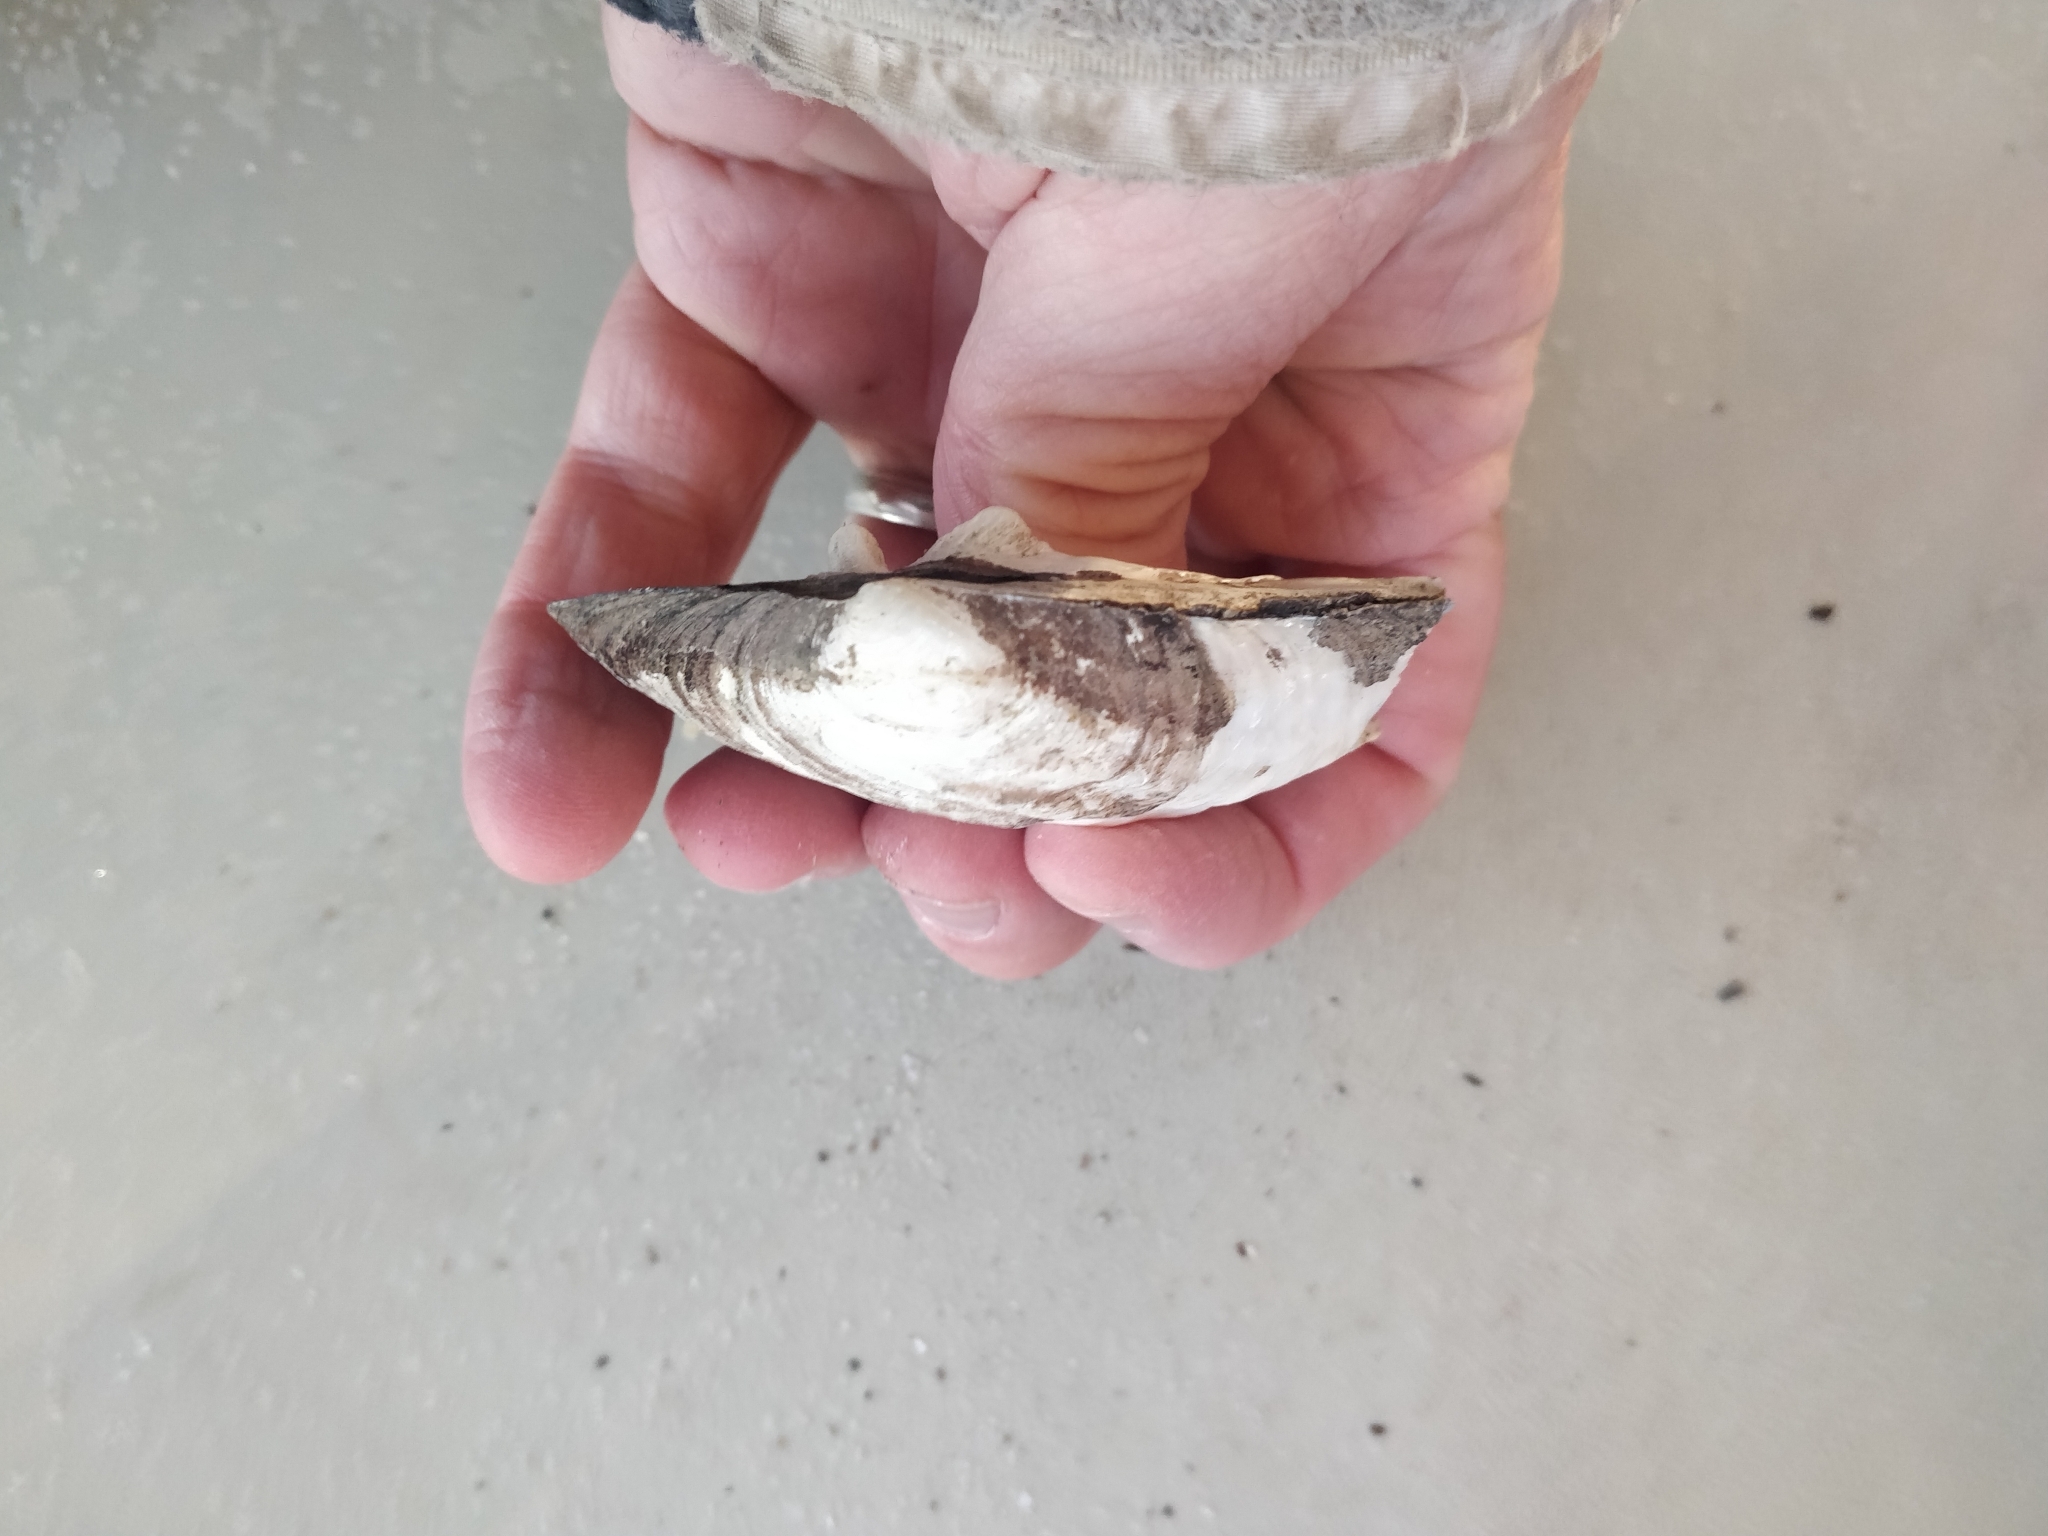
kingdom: Animalia
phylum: Mollusca
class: Bivalvia
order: Unionida
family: Unionidae
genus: Amblema
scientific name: Amblema plicata
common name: Threeridge
